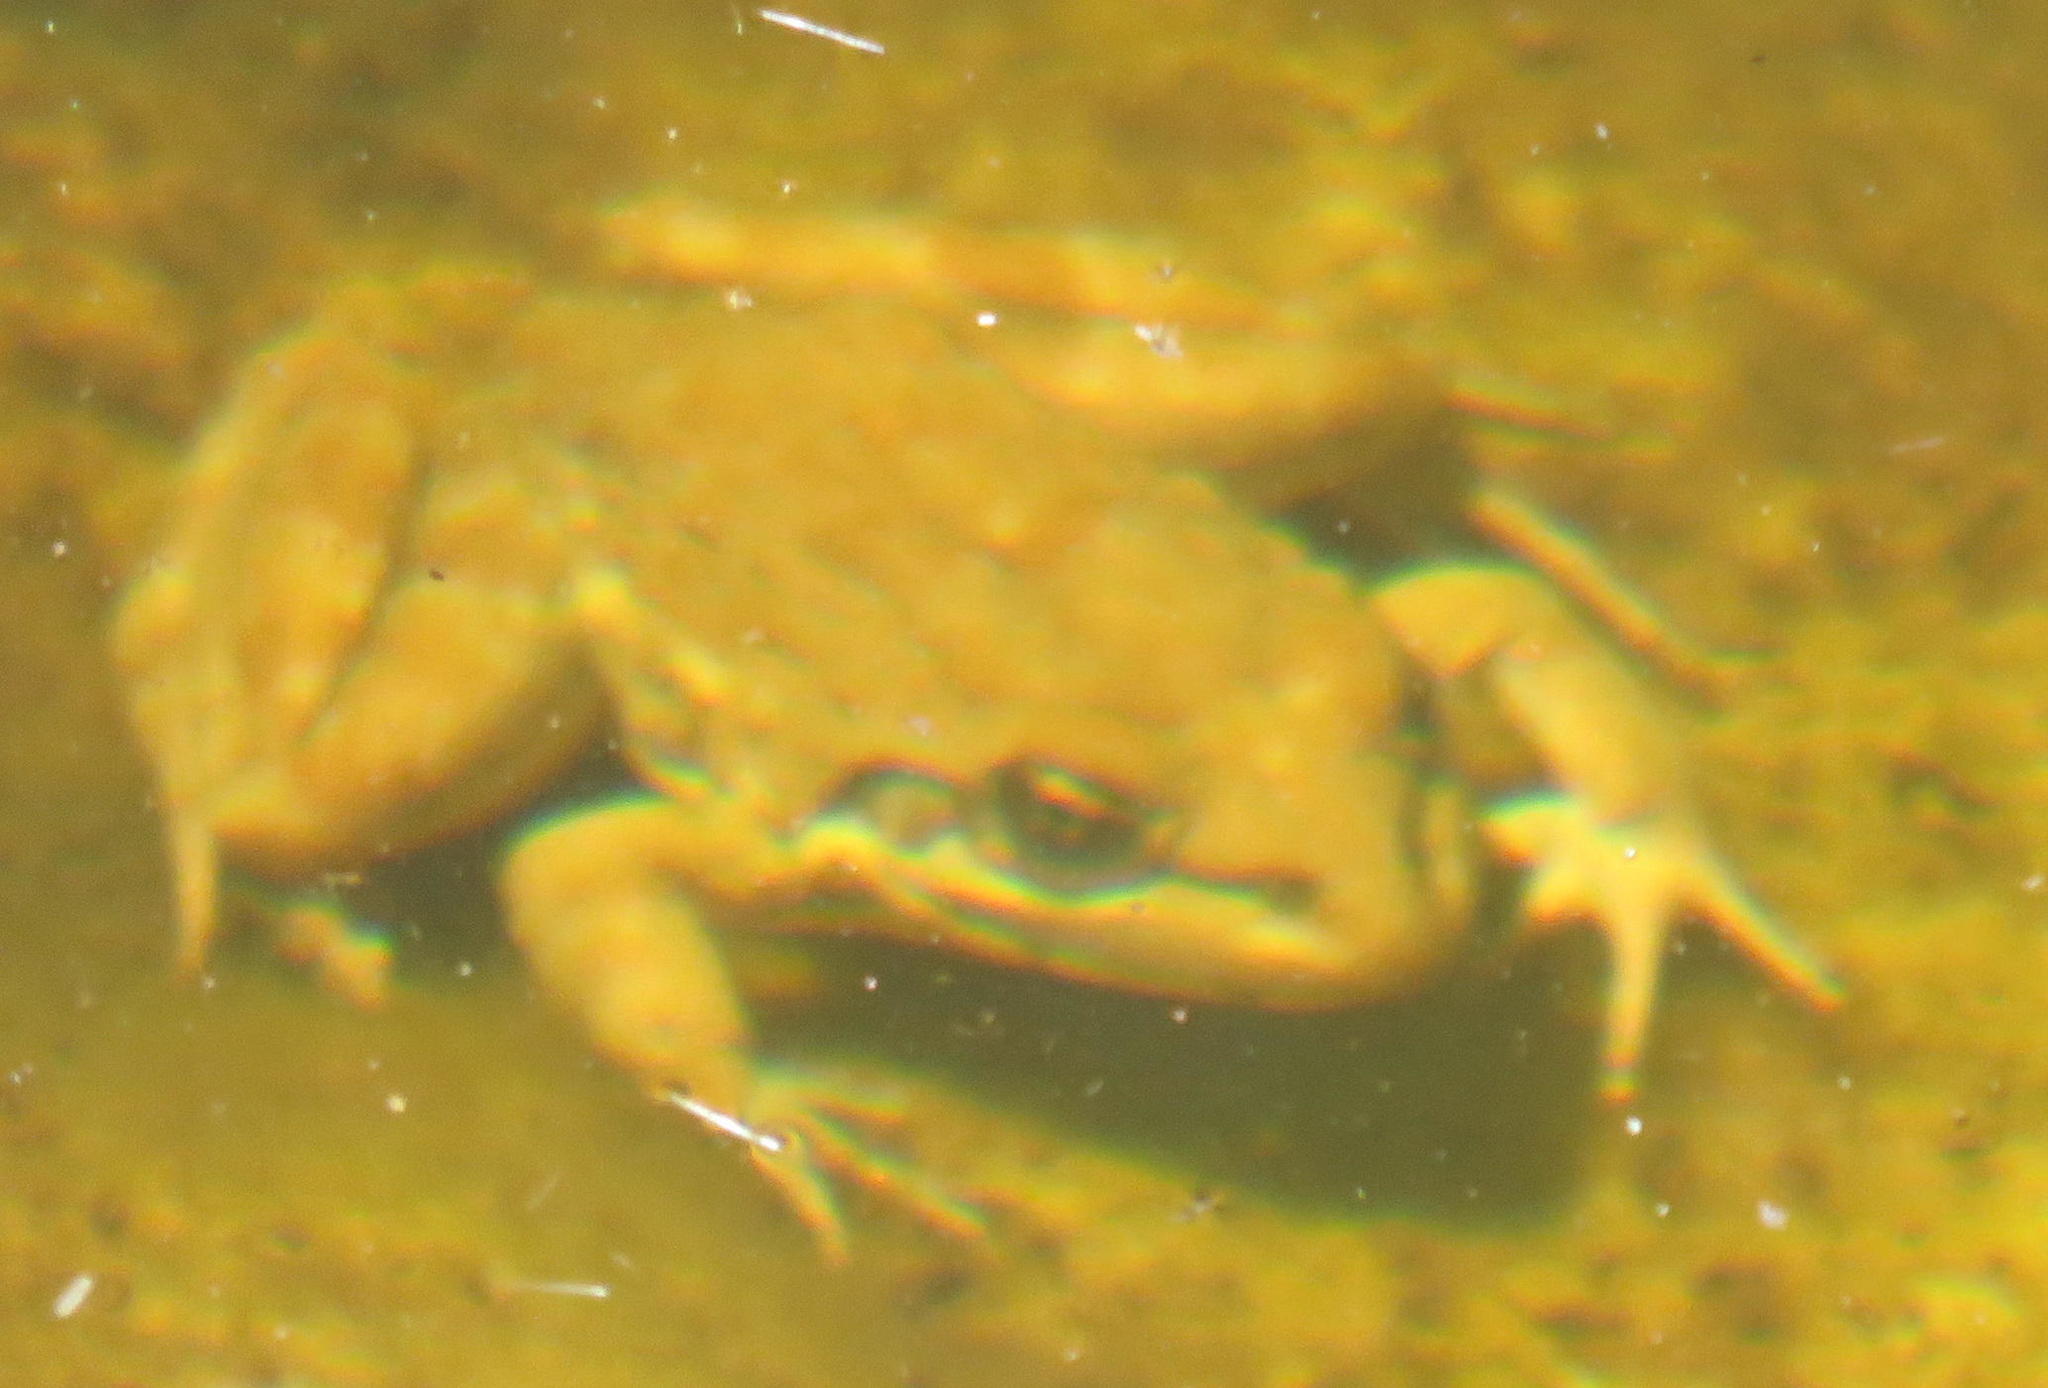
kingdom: Animalia
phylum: Chordata
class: Amphibia
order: Anura
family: Pyxicephalidae
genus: Amietia
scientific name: Amietia fuscigula
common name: Cape rana
